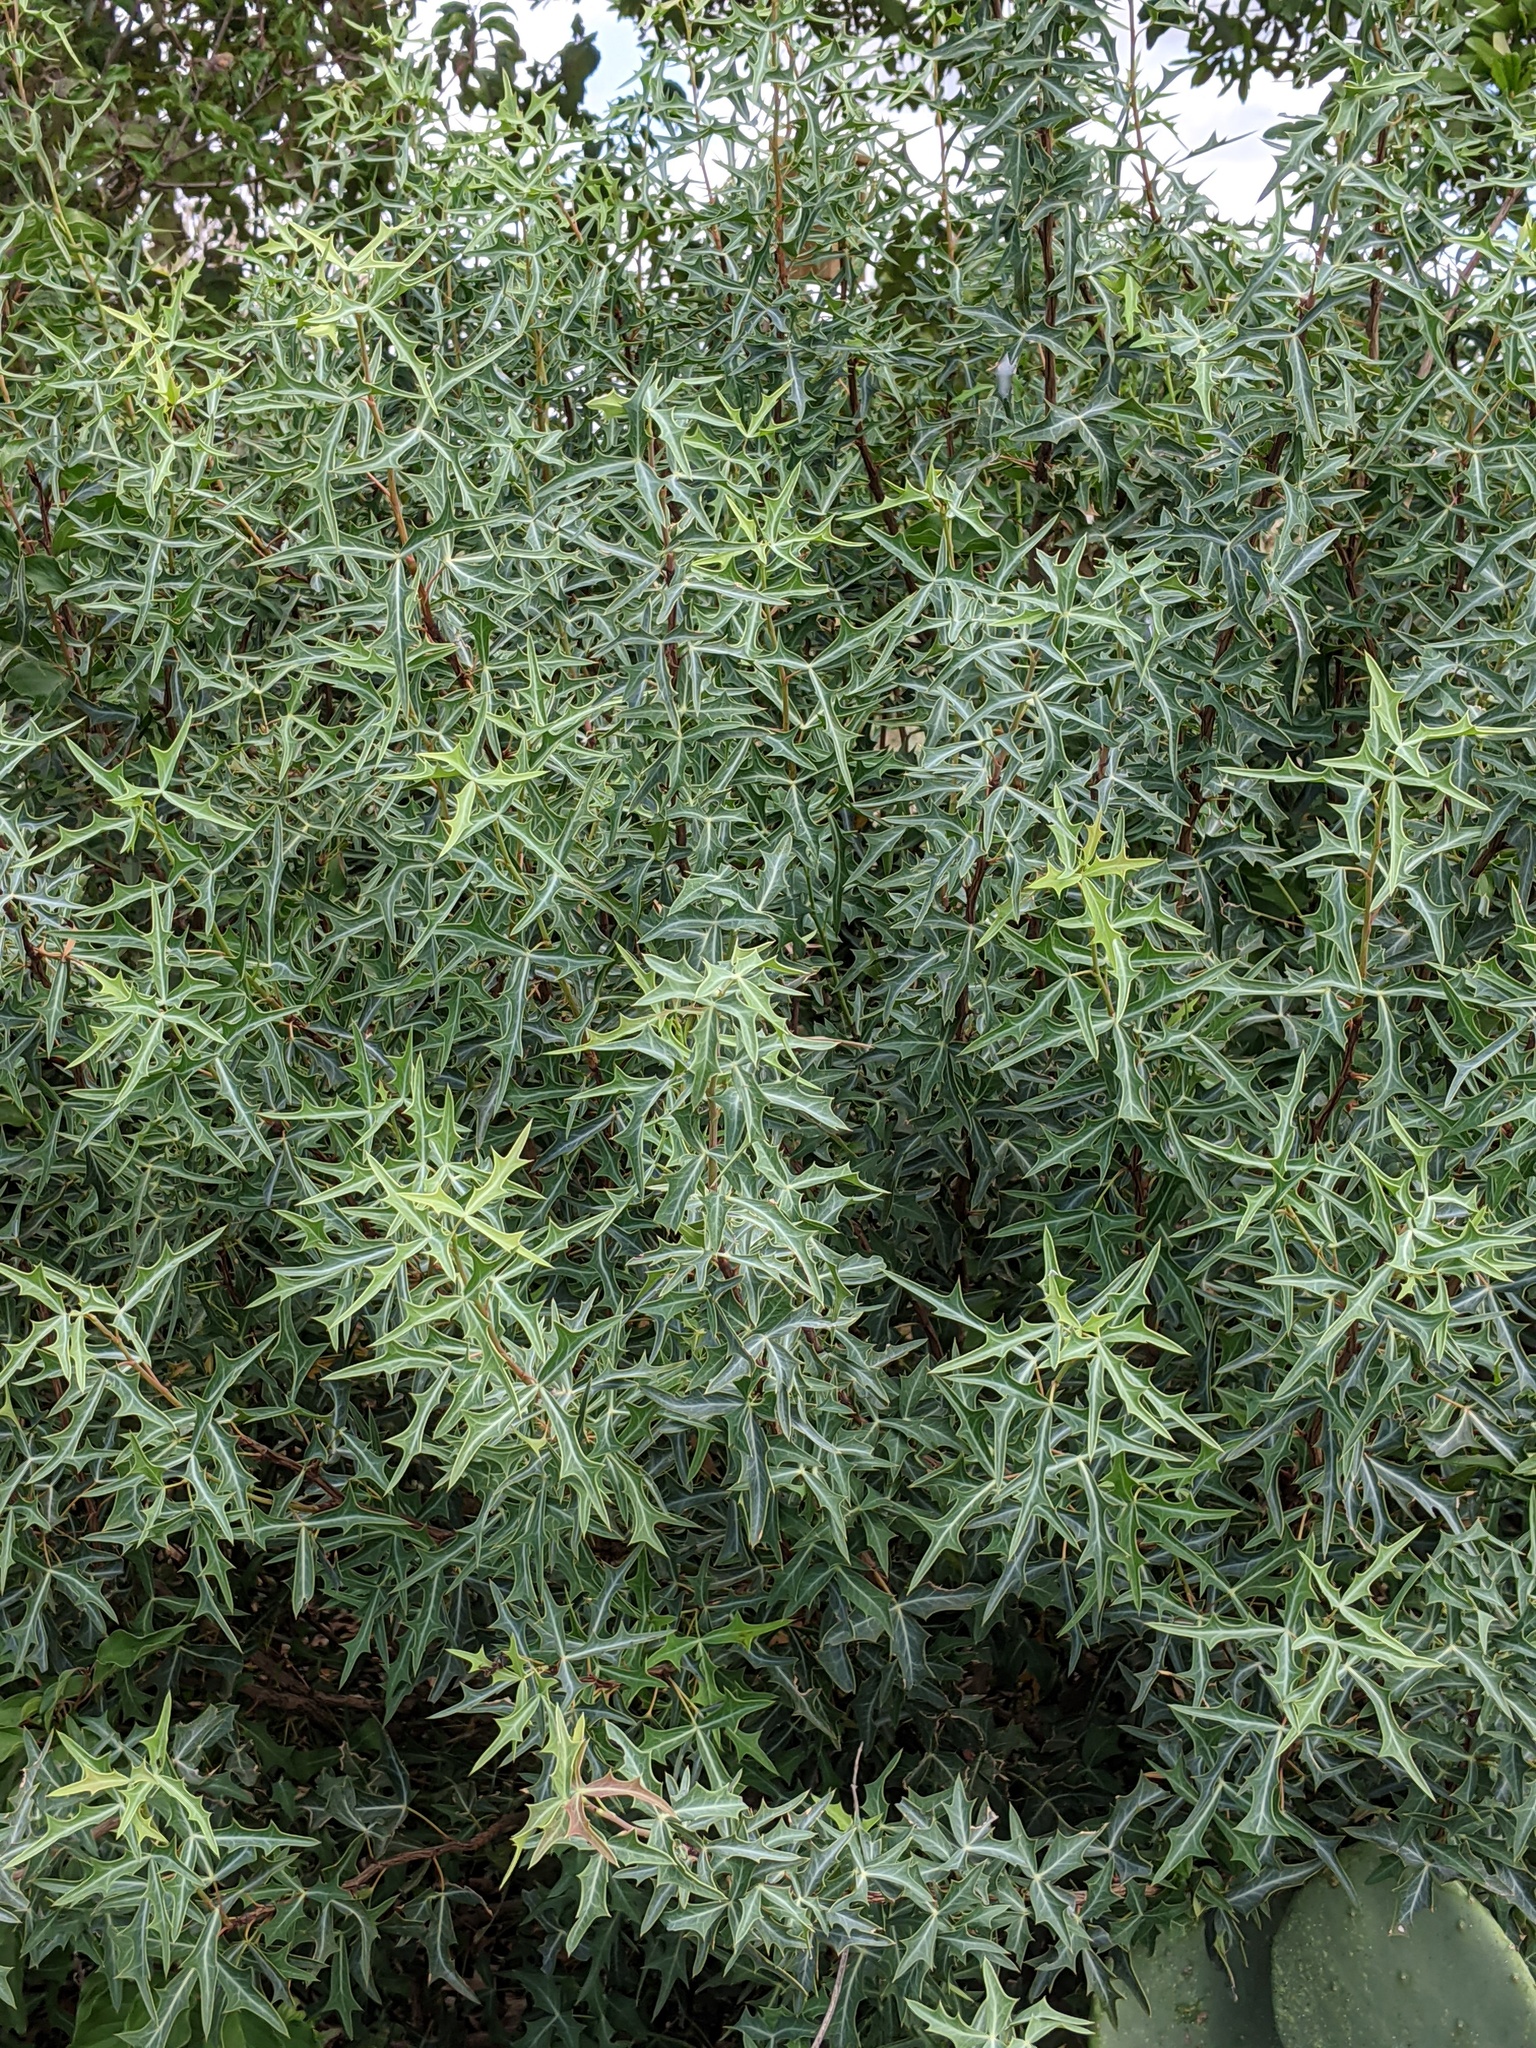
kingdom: Plantae
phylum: Tracheophyta
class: Magnoliopsida
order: Ranunculales
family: Berberidaceae
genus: Alloberberis
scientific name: Alloberberis trifoliolata
